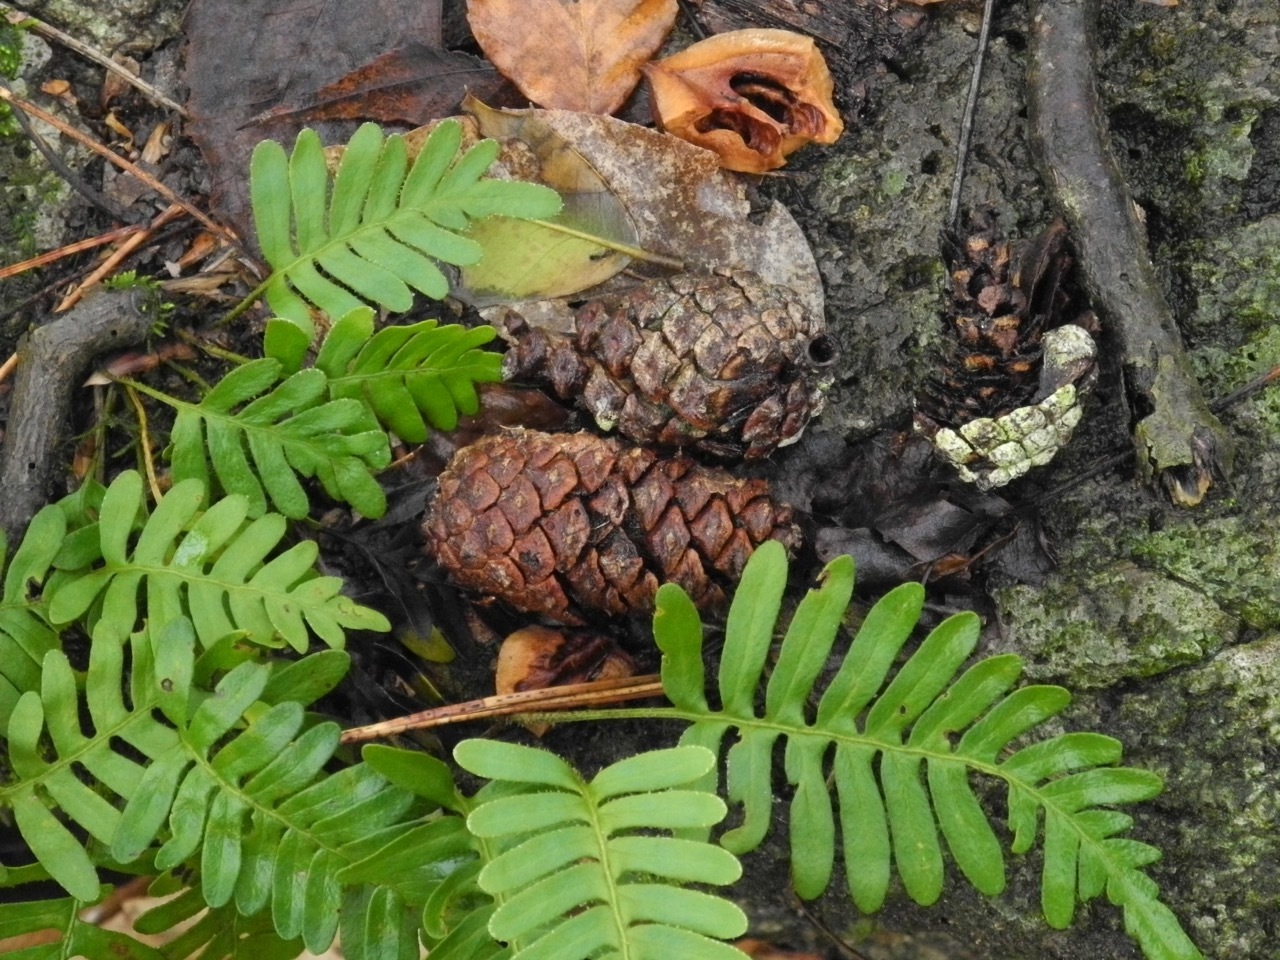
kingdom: Plantae
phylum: Tracheophyta
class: Pinopsida
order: Pinales
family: Pinaceae
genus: Pinus
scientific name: Pinus echinata
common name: Shortleaf pine
